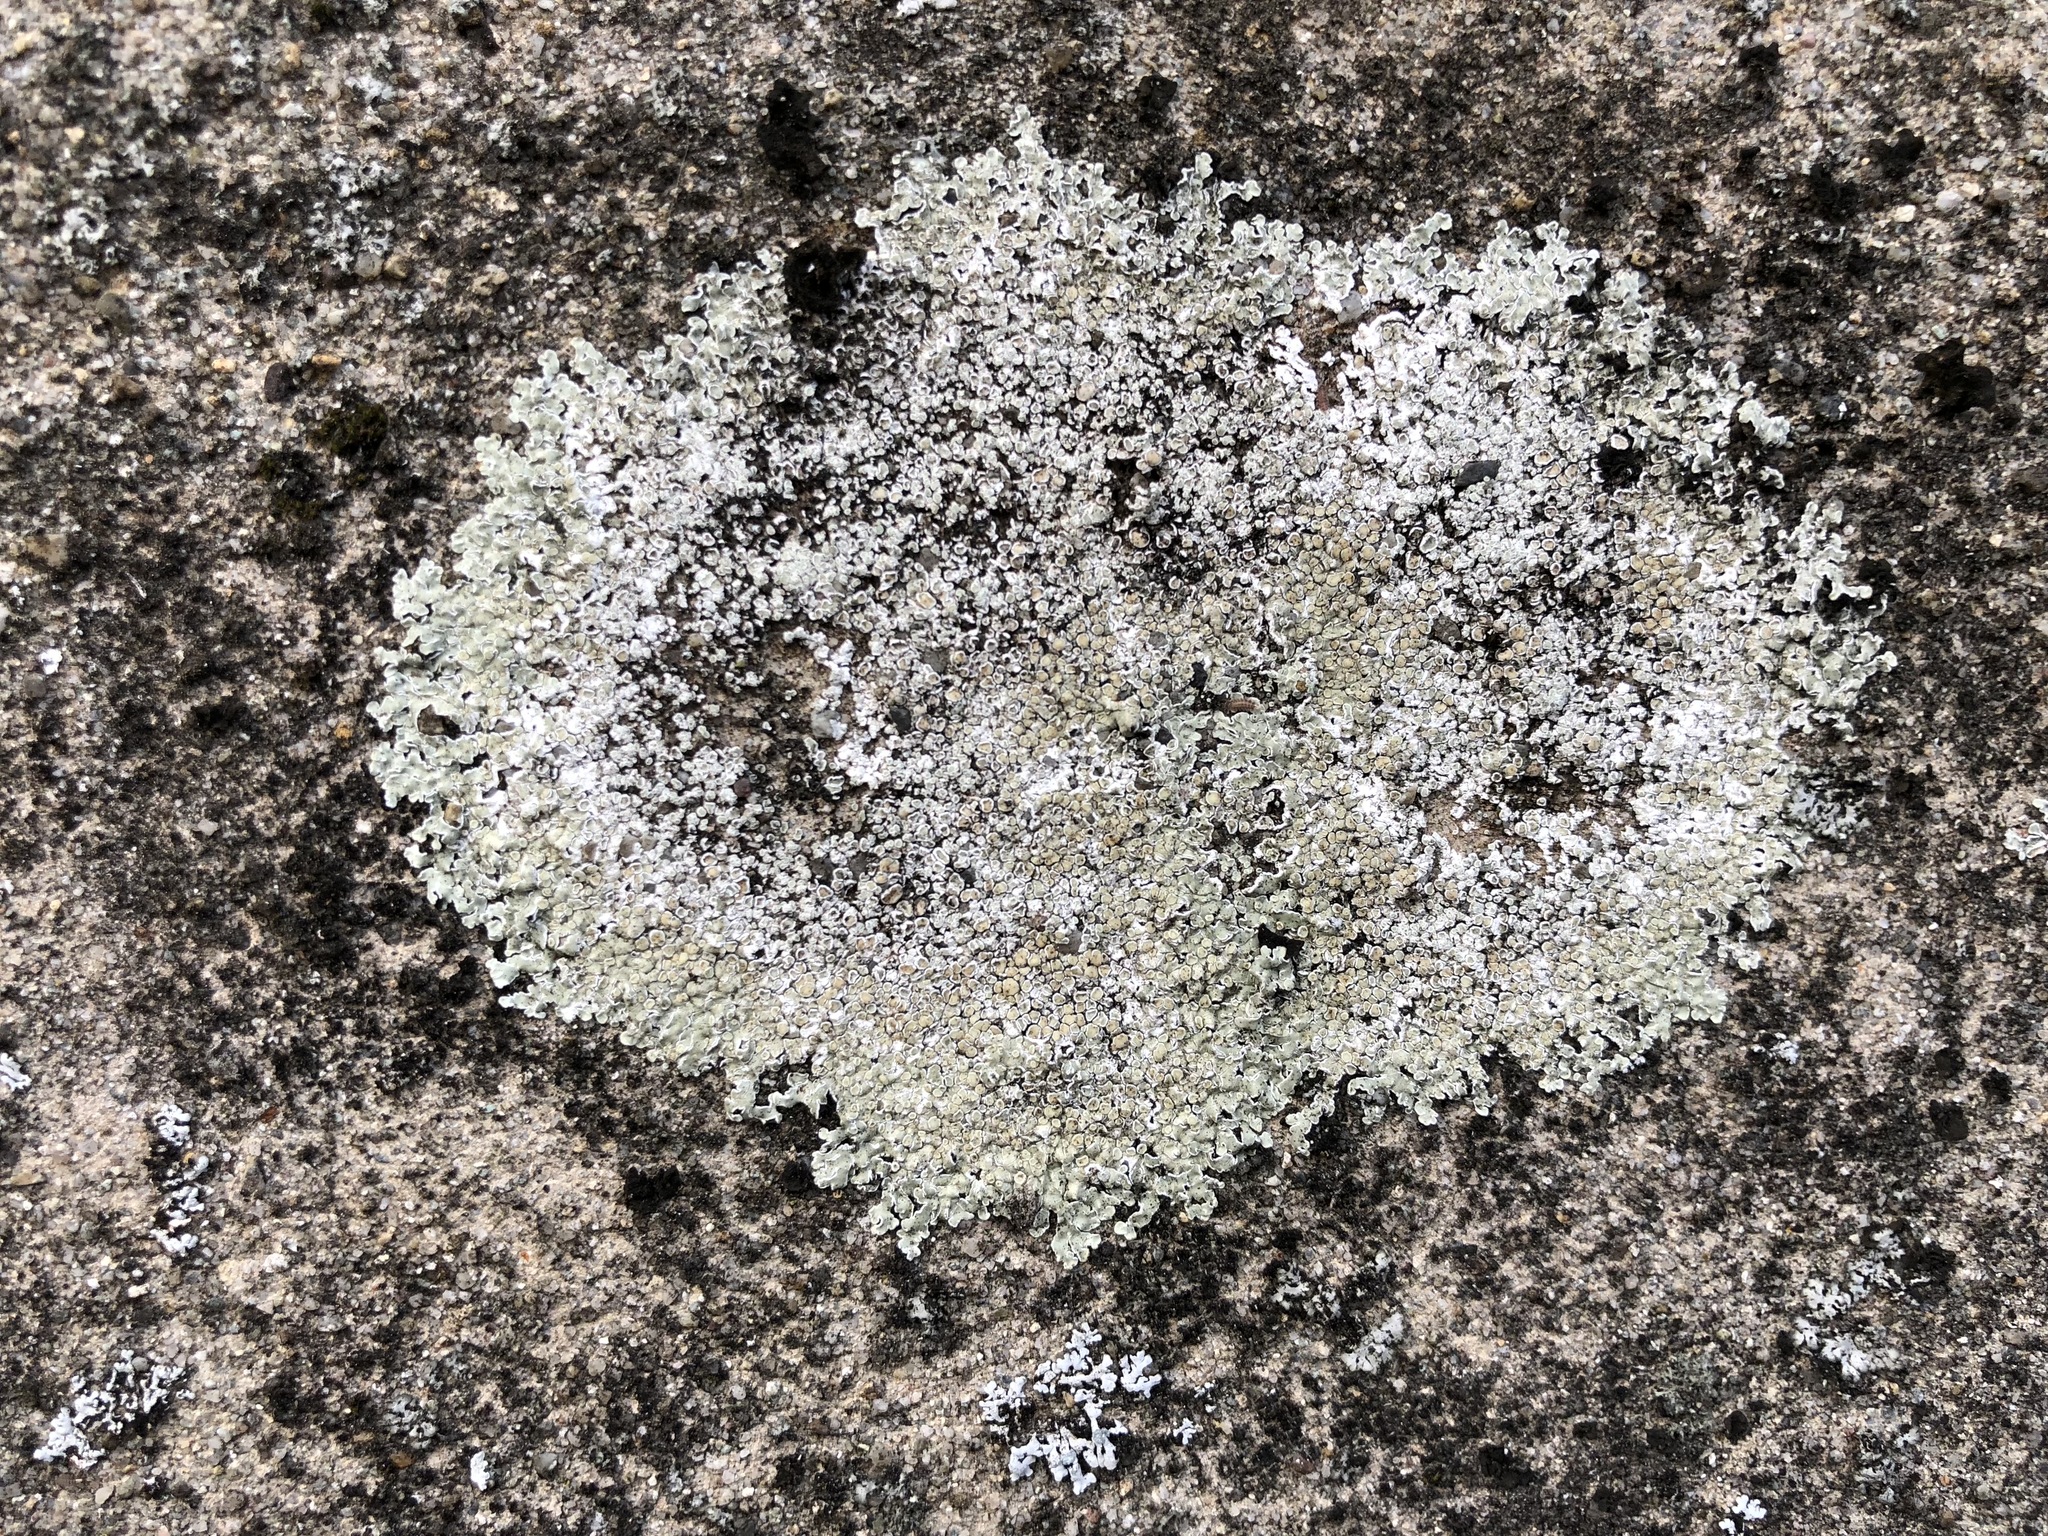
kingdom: Fungi
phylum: Ascomycota
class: Lecanoromycetes
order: Lecanorales
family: Lecanoraceae
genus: Protoparmeliopsis
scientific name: Protoparmeliopsis muralis
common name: Stonewall rim lichen
